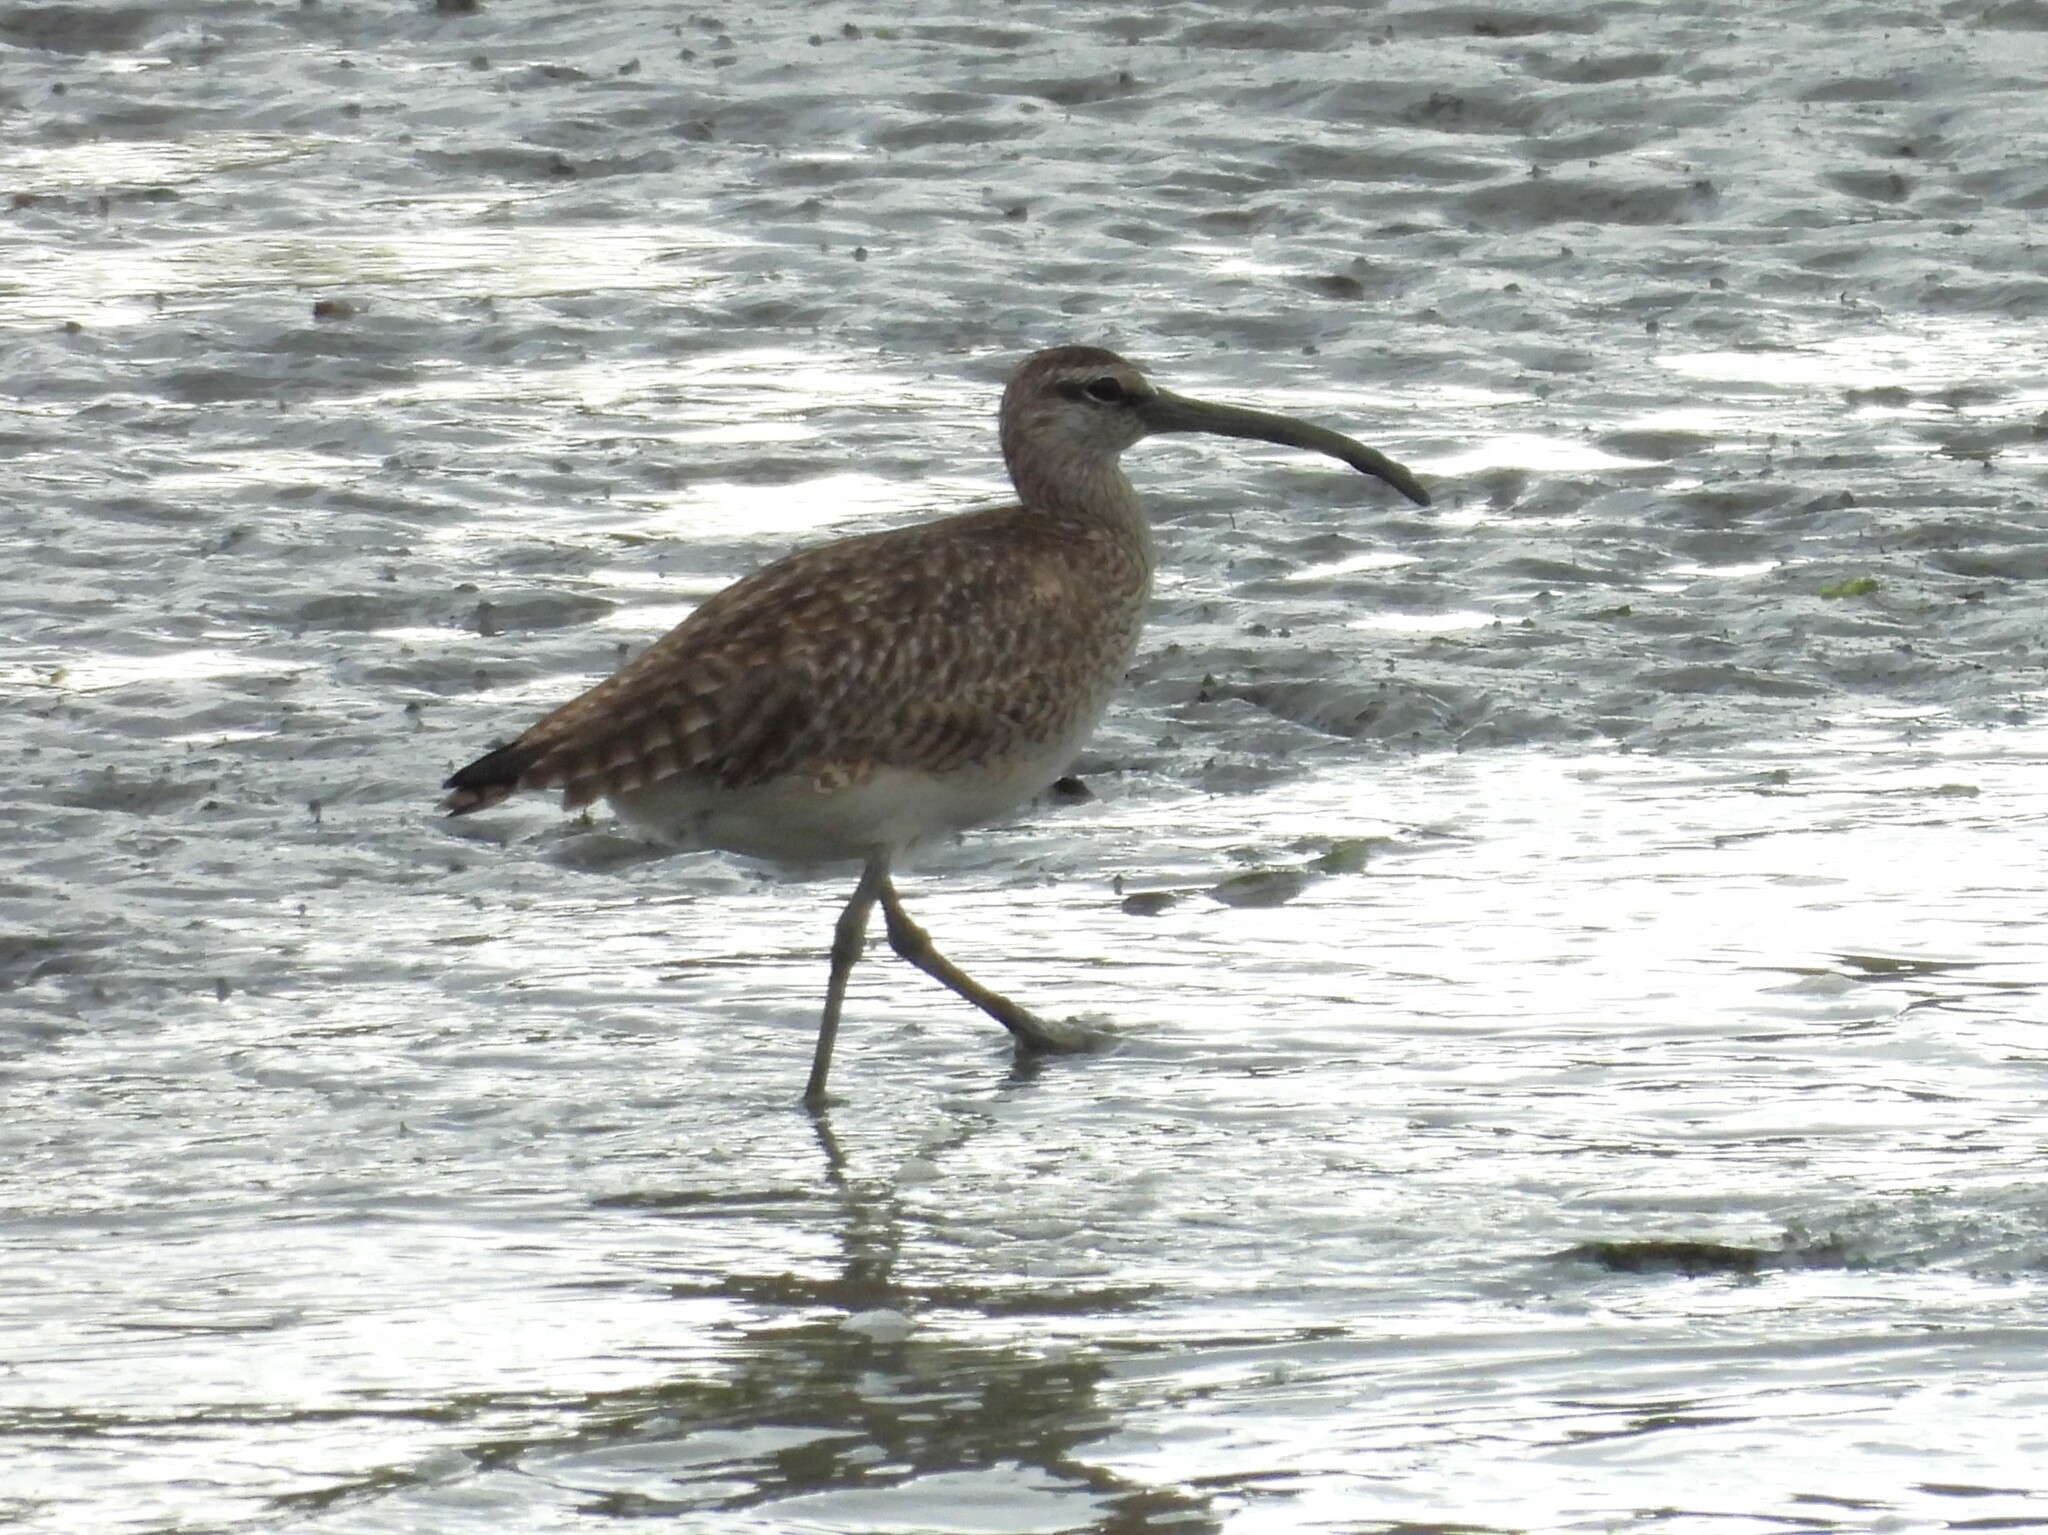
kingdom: Animalia
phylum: Chordata
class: Aves
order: Charadriiformes
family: Scolopacidae
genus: Numenius
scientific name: Numenius phaeopus
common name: Whimbrel
